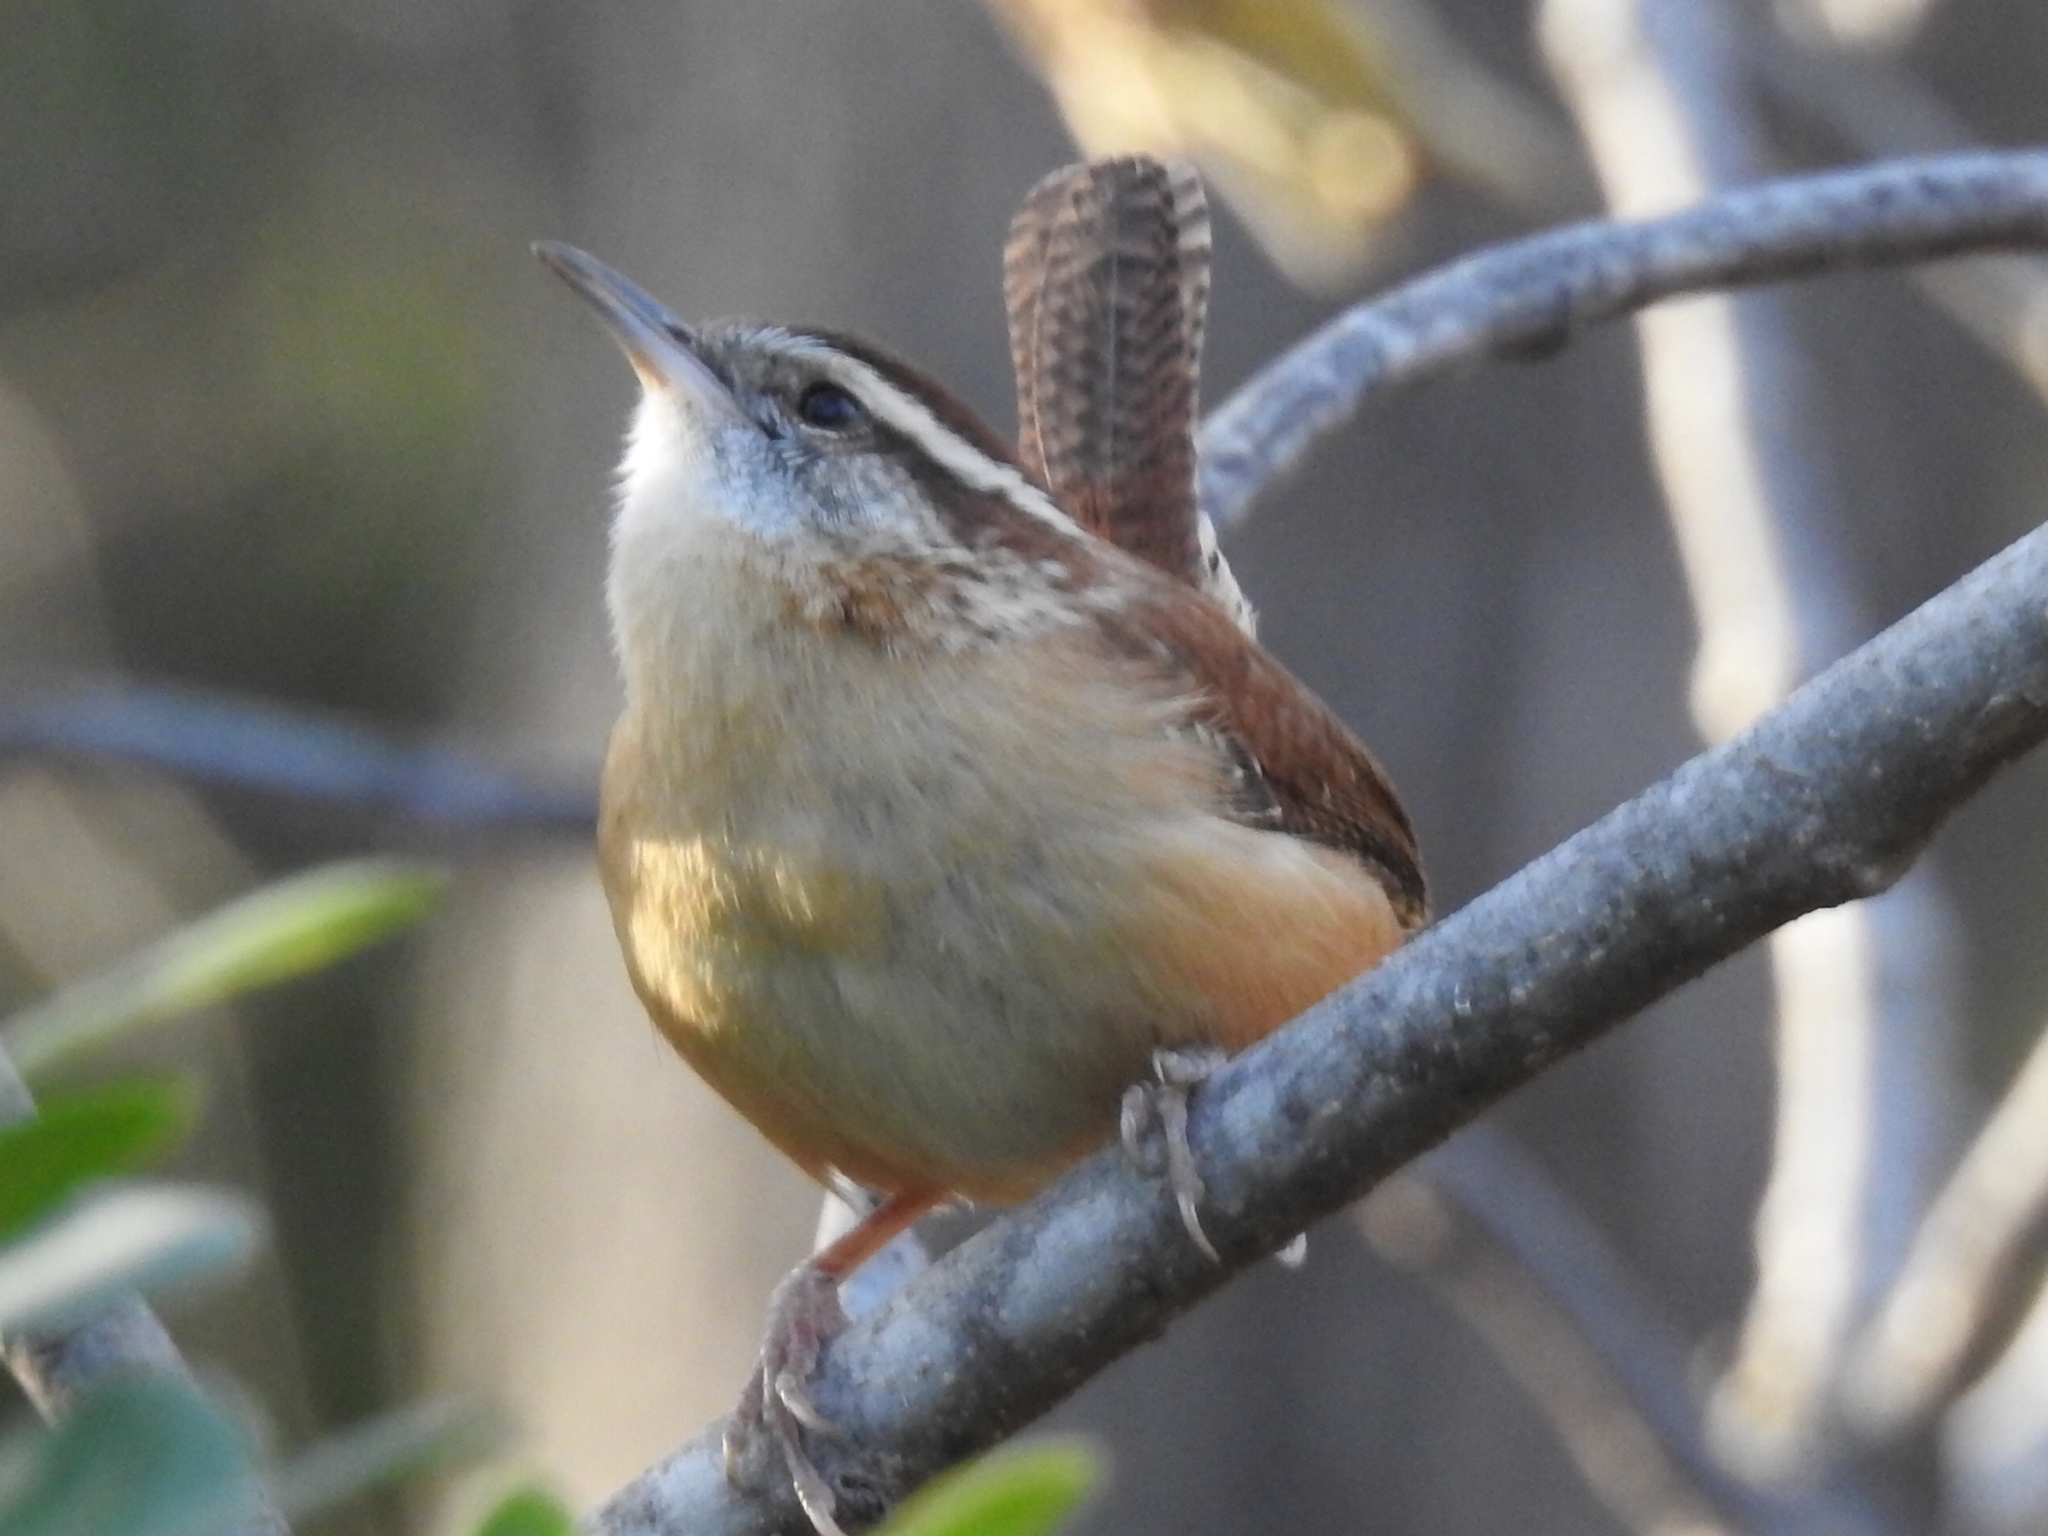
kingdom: Animalia
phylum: Chordata
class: Aves
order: Passeriformes
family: Troglodytidae
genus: Thryothorus
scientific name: Thryothorus ludovicianus
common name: Carolina wren
